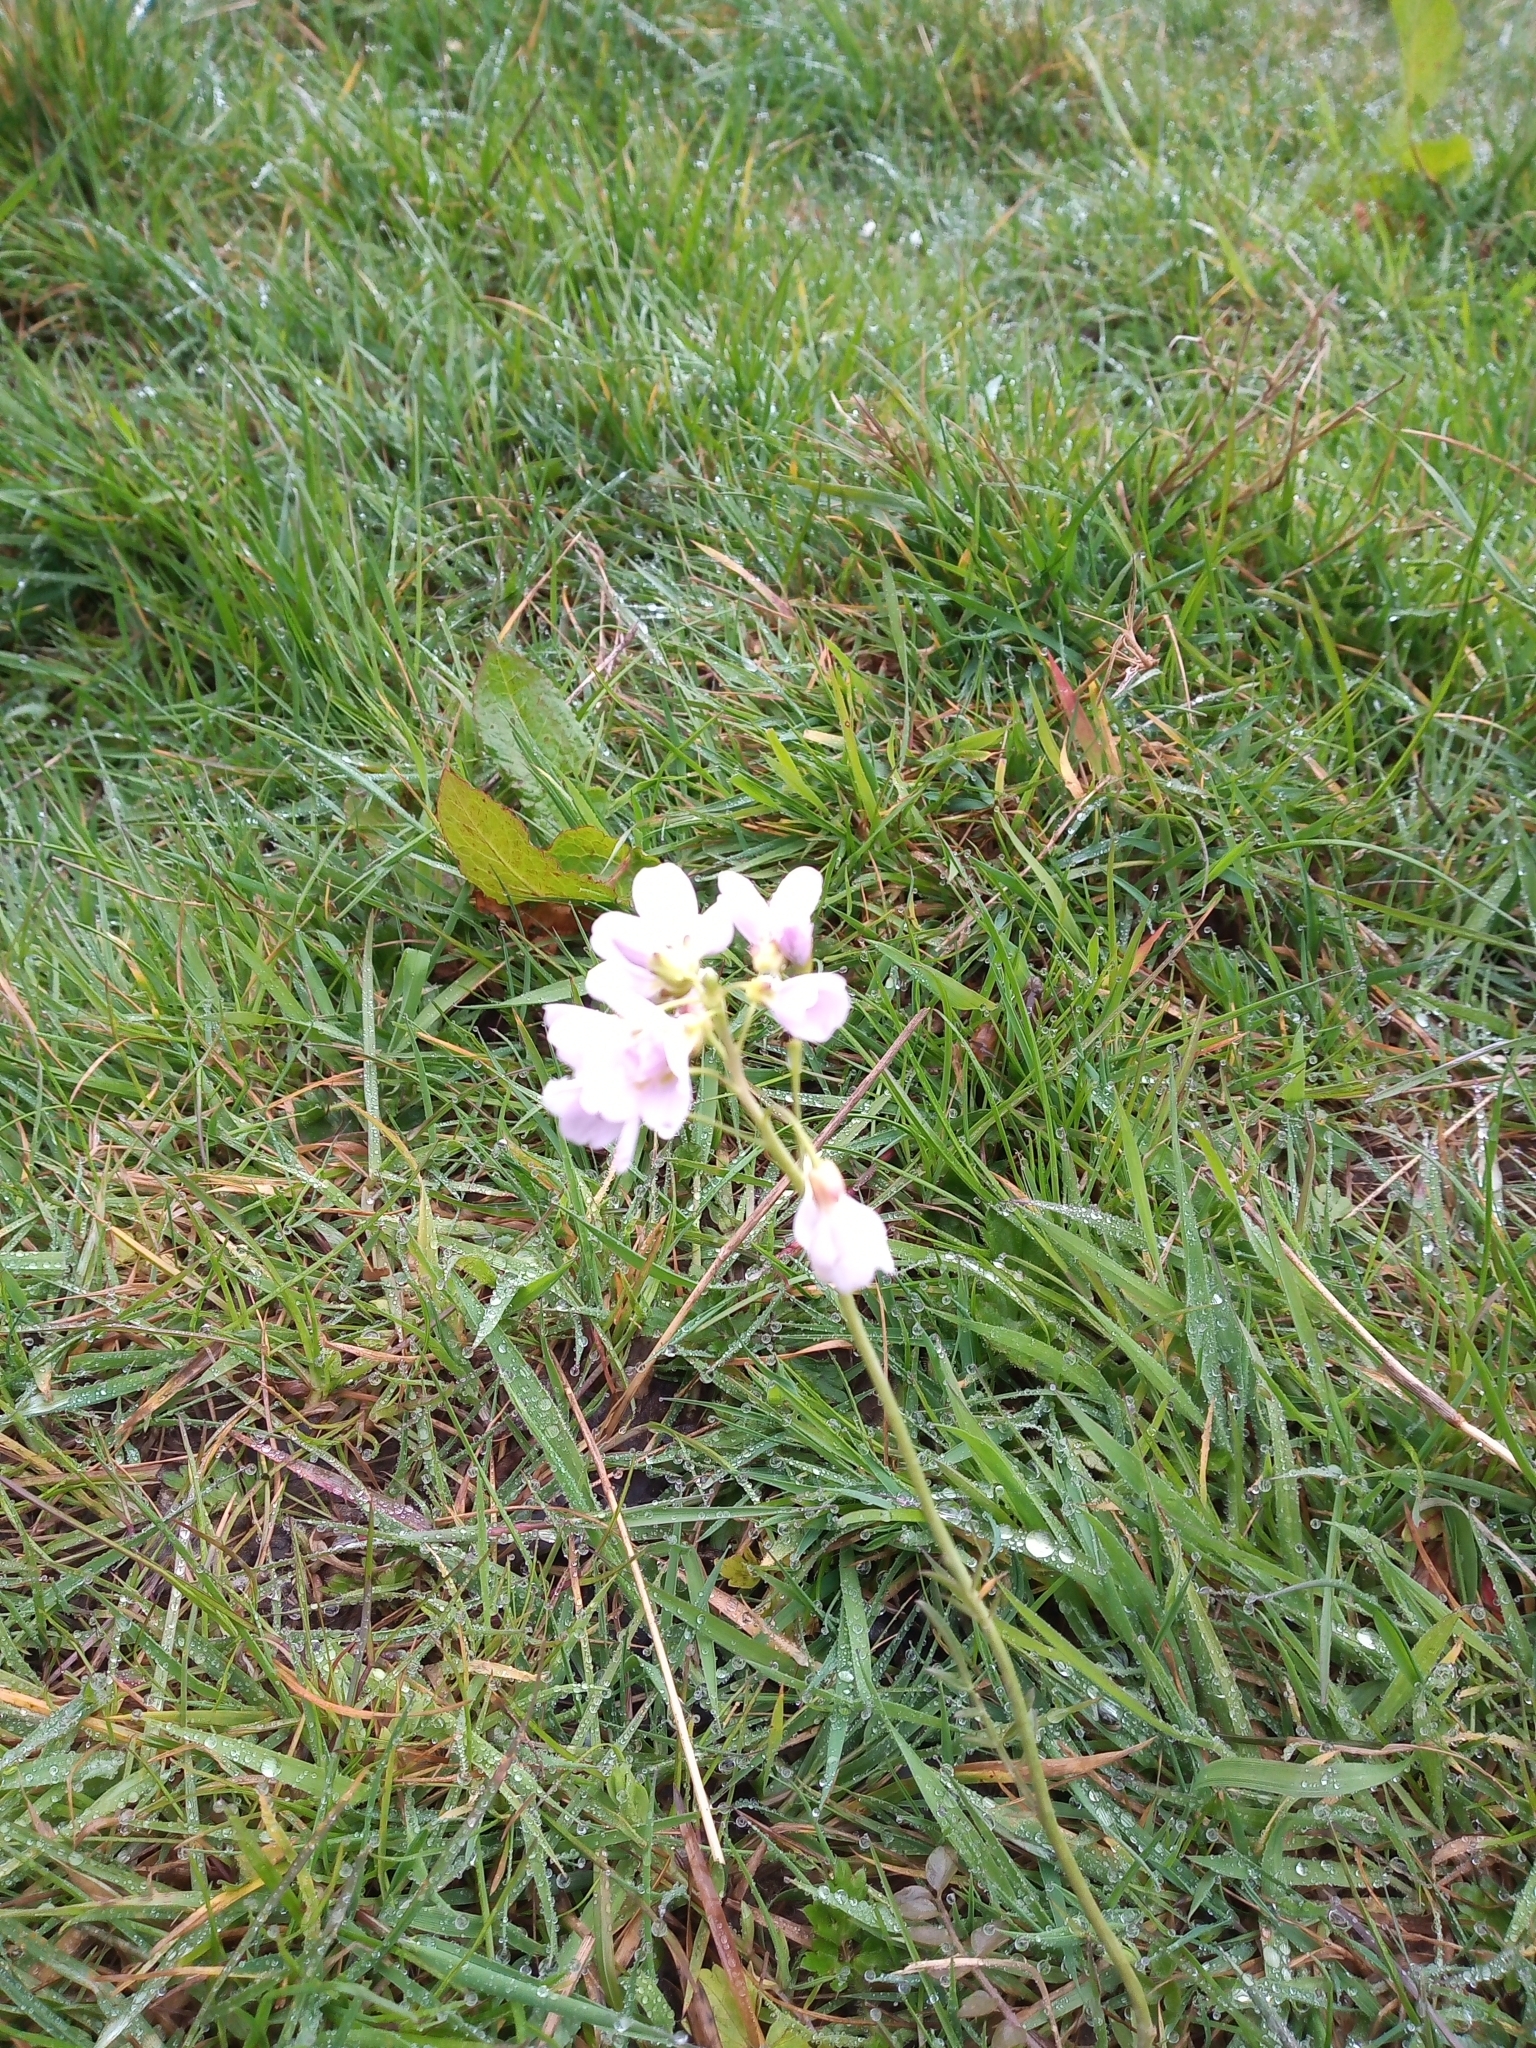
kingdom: Plantae
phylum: Tracheophyta
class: Magnoliopsida
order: Brassicales
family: Brassicaceae
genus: Cardamine
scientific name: Cardamine pratensis
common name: Cuckoo flower
